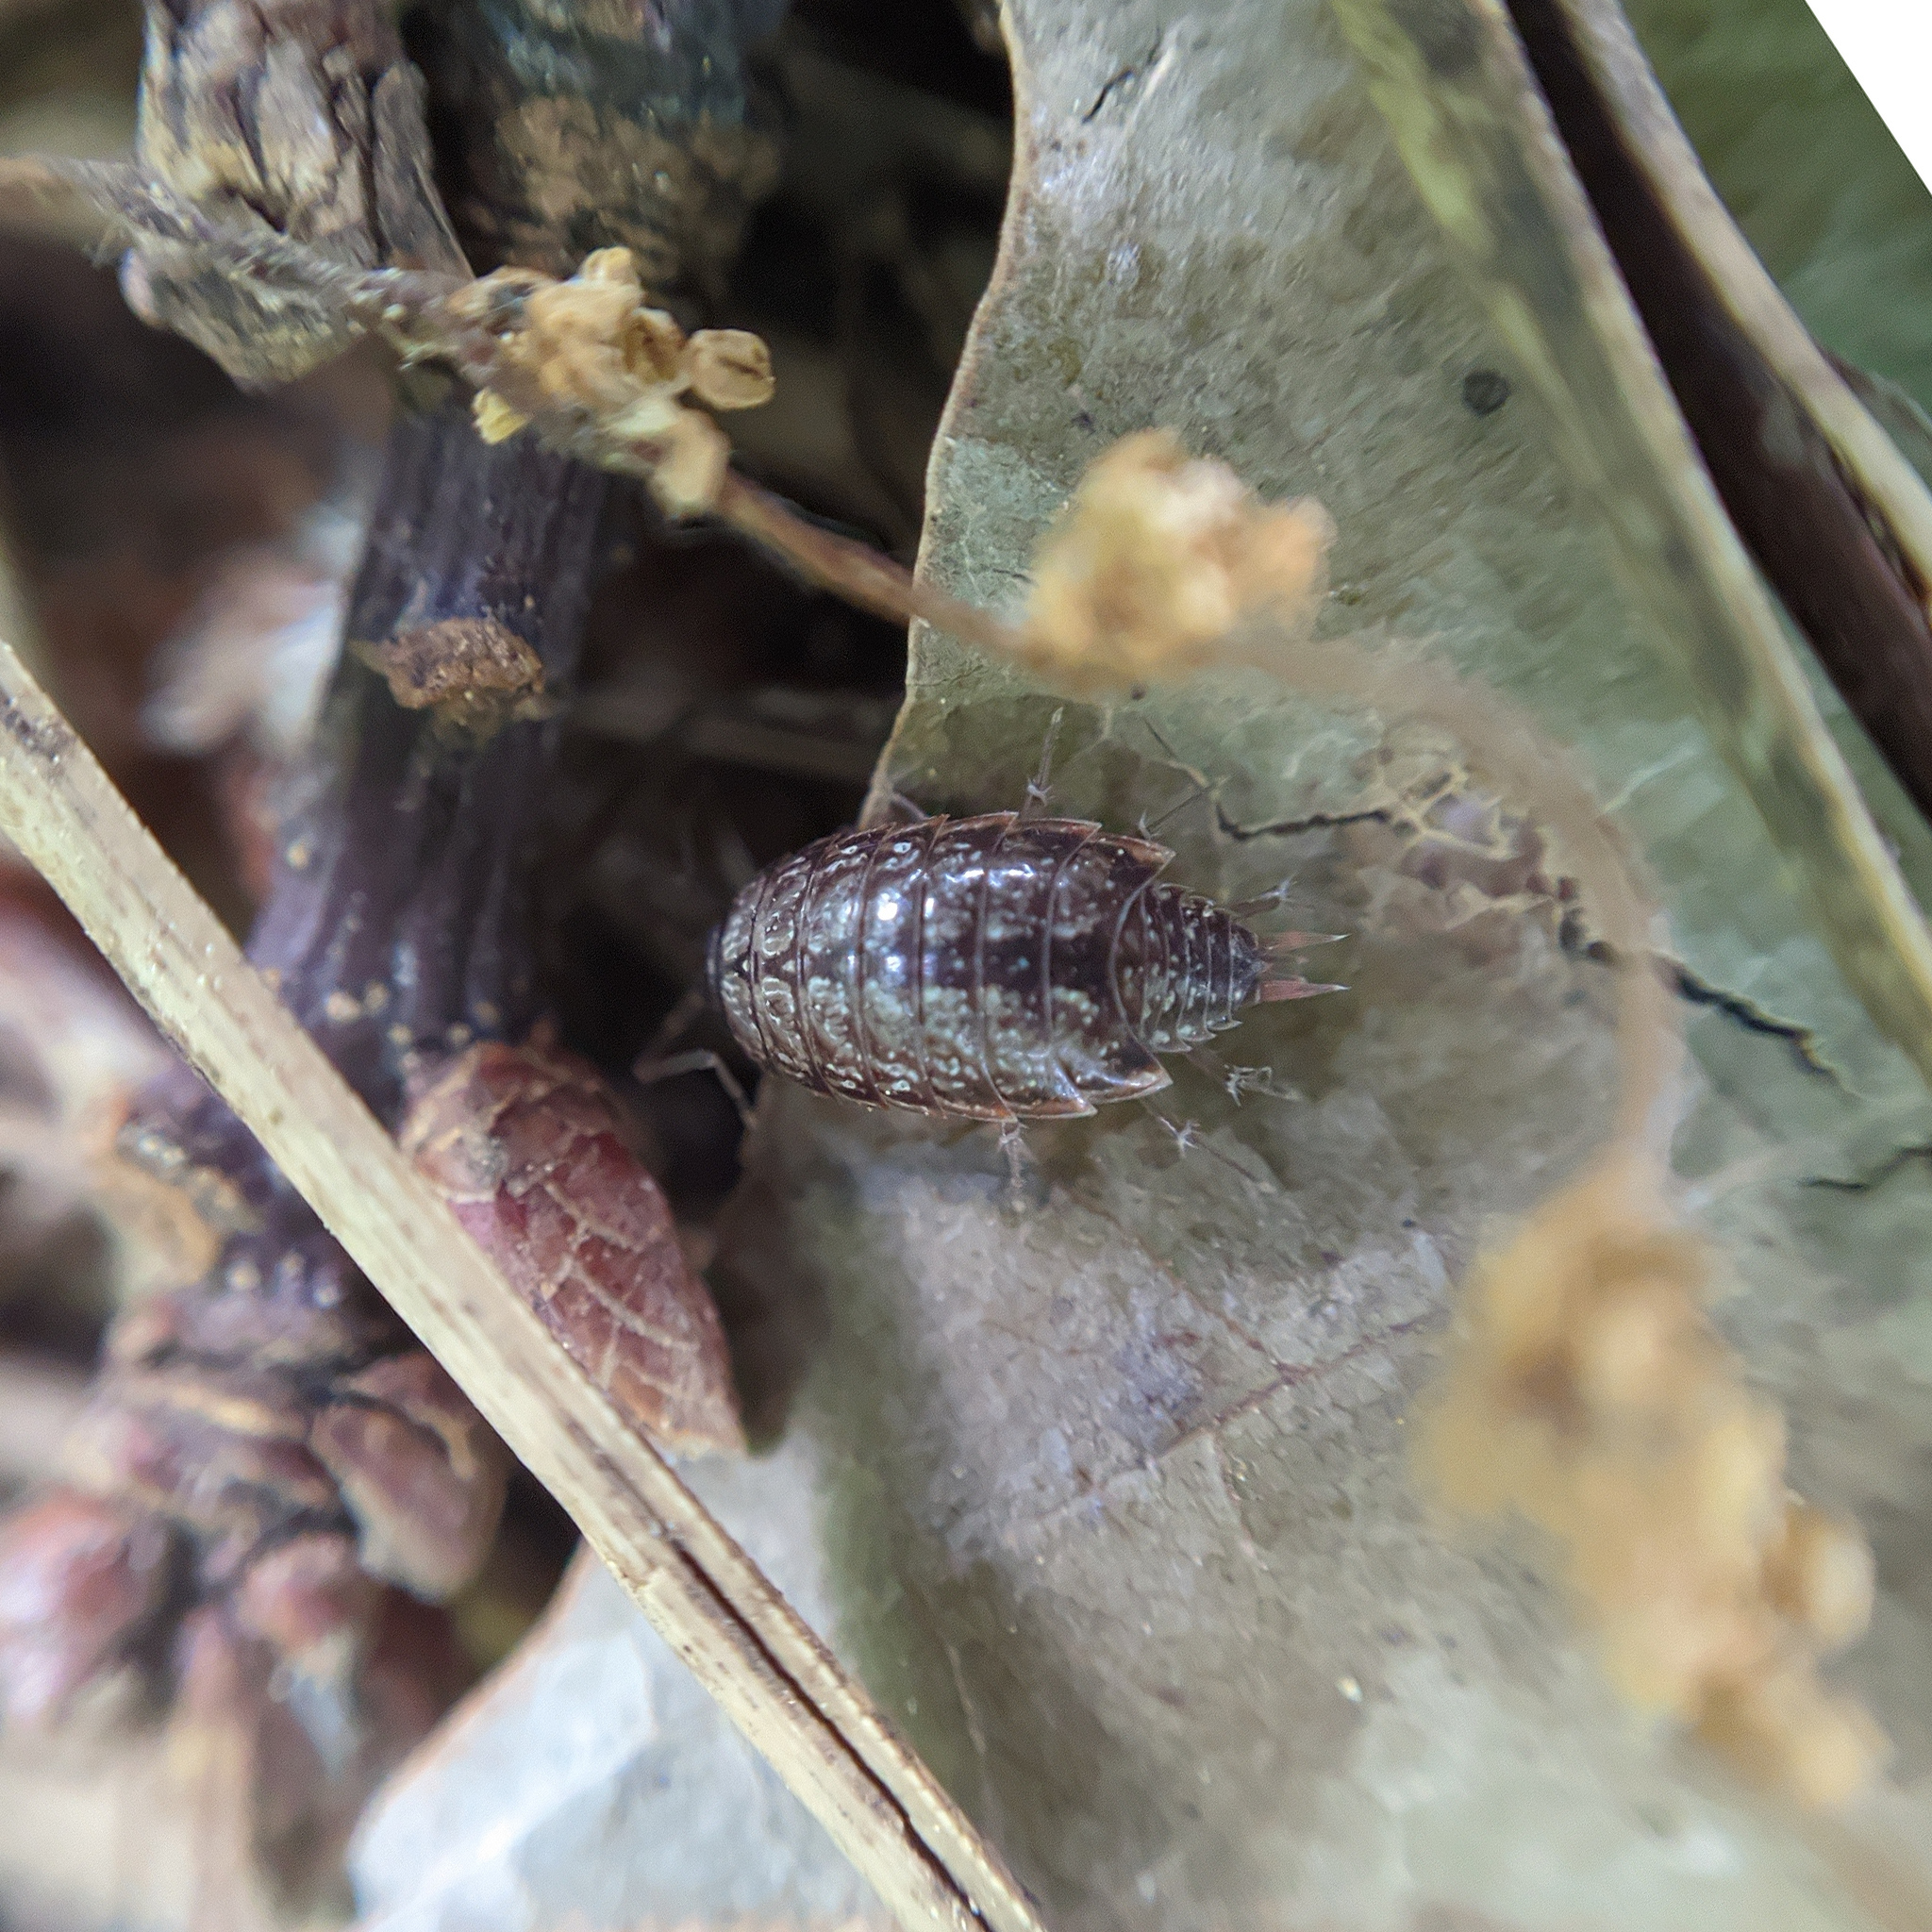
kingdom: Animalia
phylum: Arthropoda
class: Malacostraca
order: Isopoda
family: Philosciidae
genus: Philoscia
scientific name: Philoscia muscorum
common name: Common striped woodlouse
